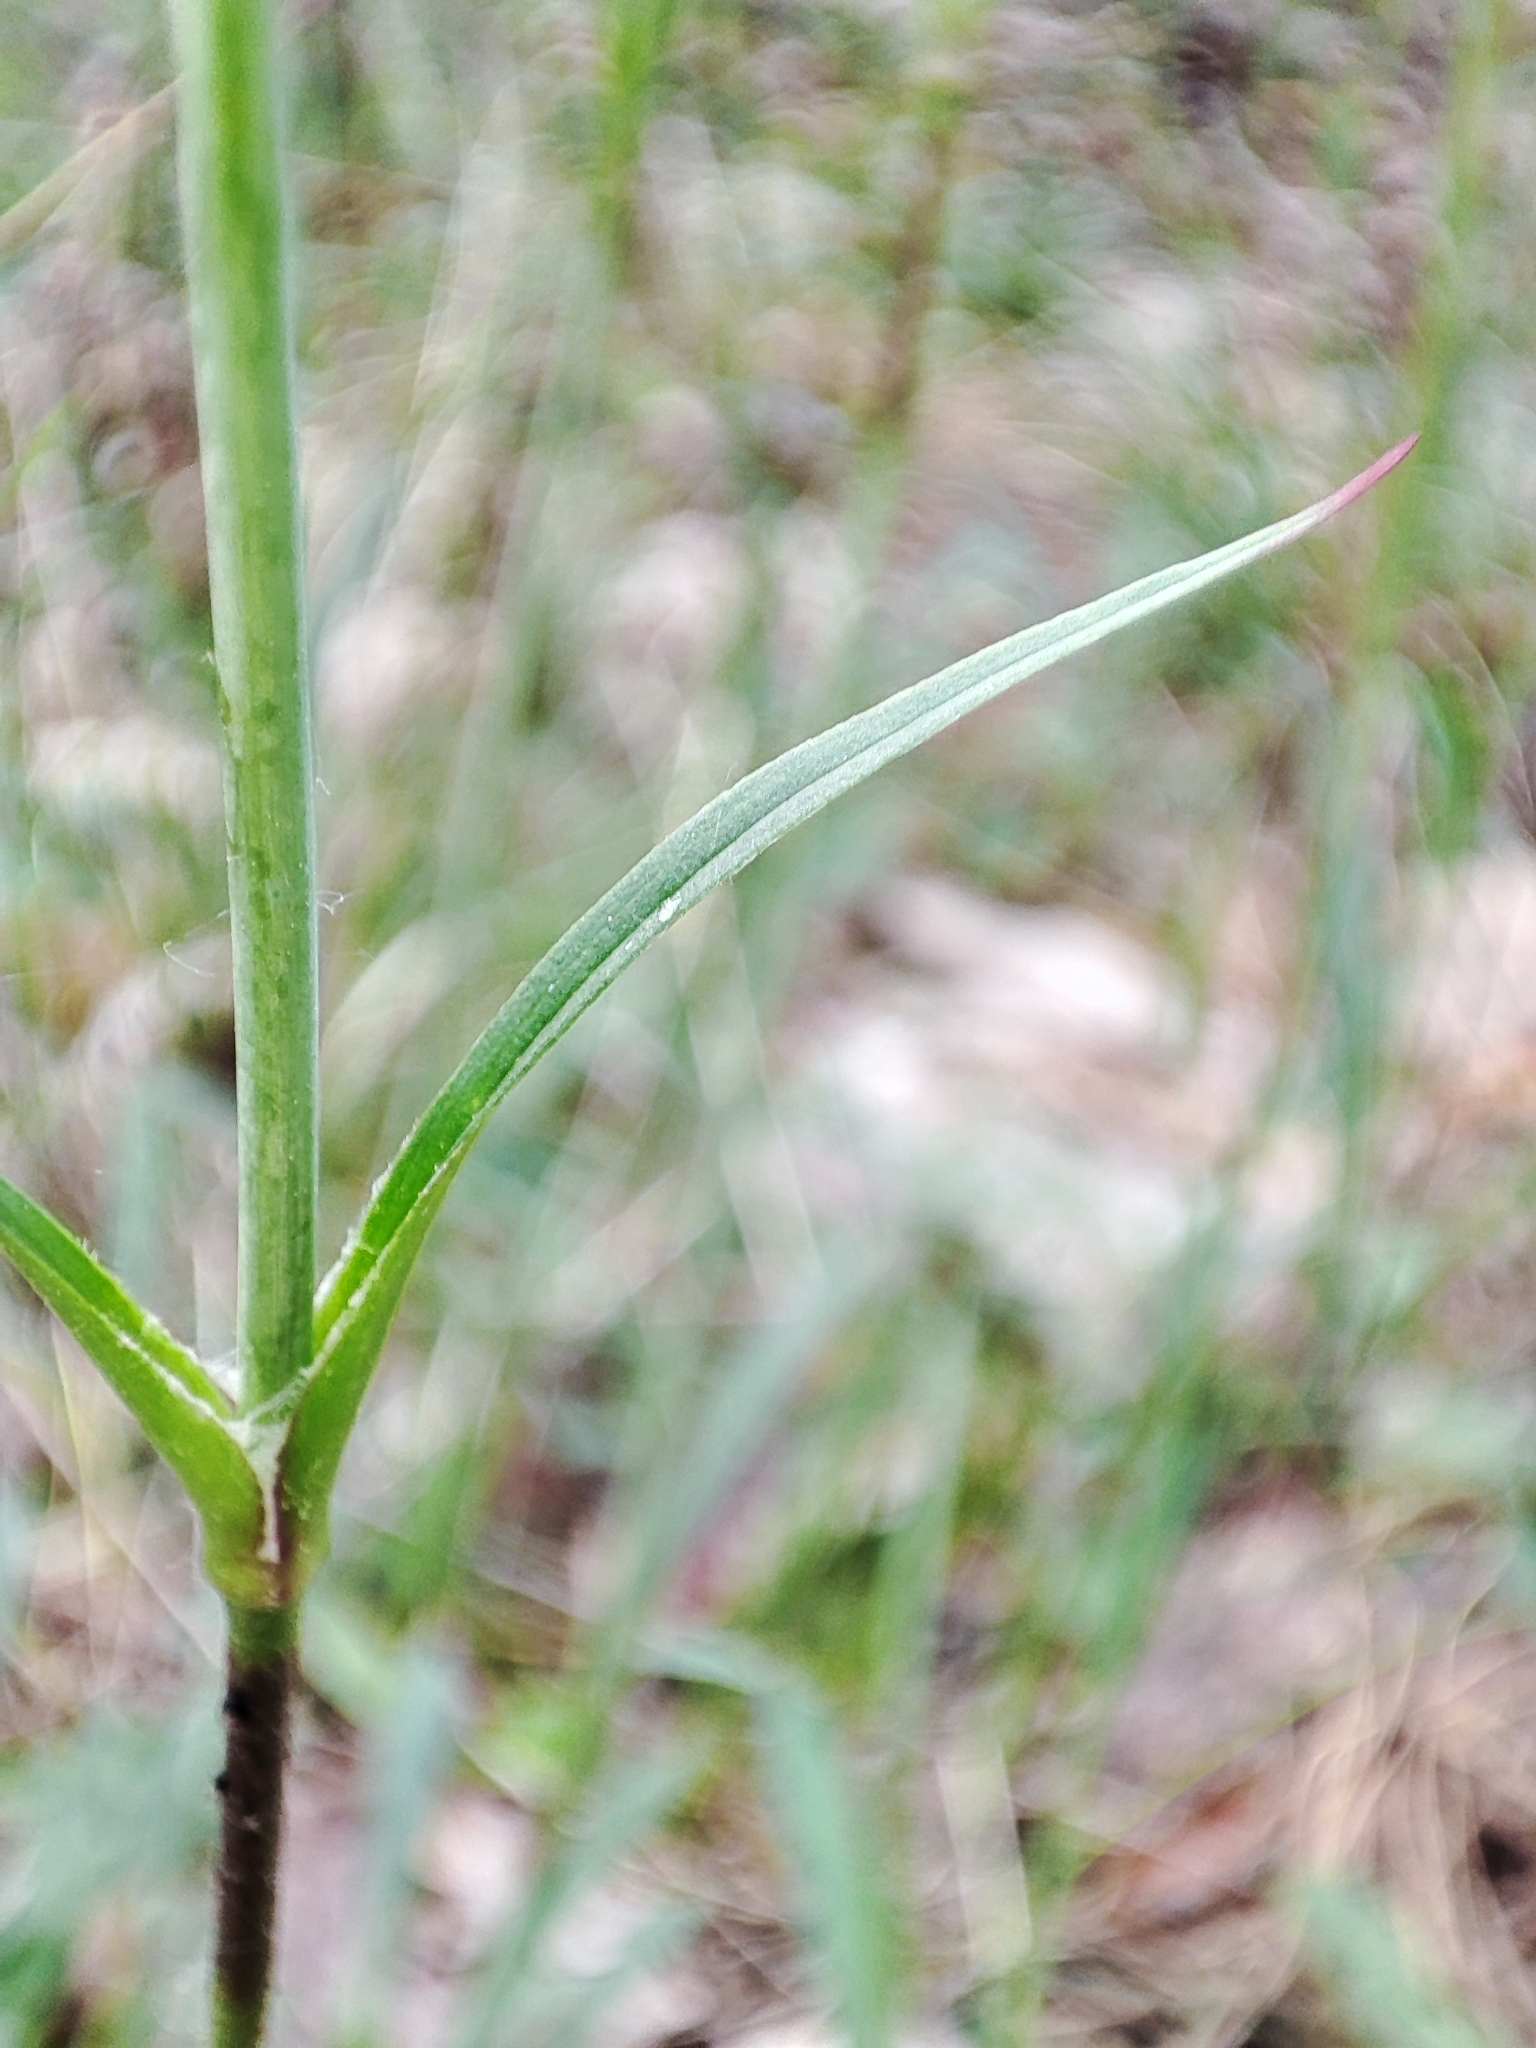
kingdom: Plantae
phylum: Tracheophyta
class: Magnoliopsida
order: Caryophyllales
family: Caryophyllaceae
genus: Viscaria
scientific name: Viscaria vulgaris
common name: Clammy campion
